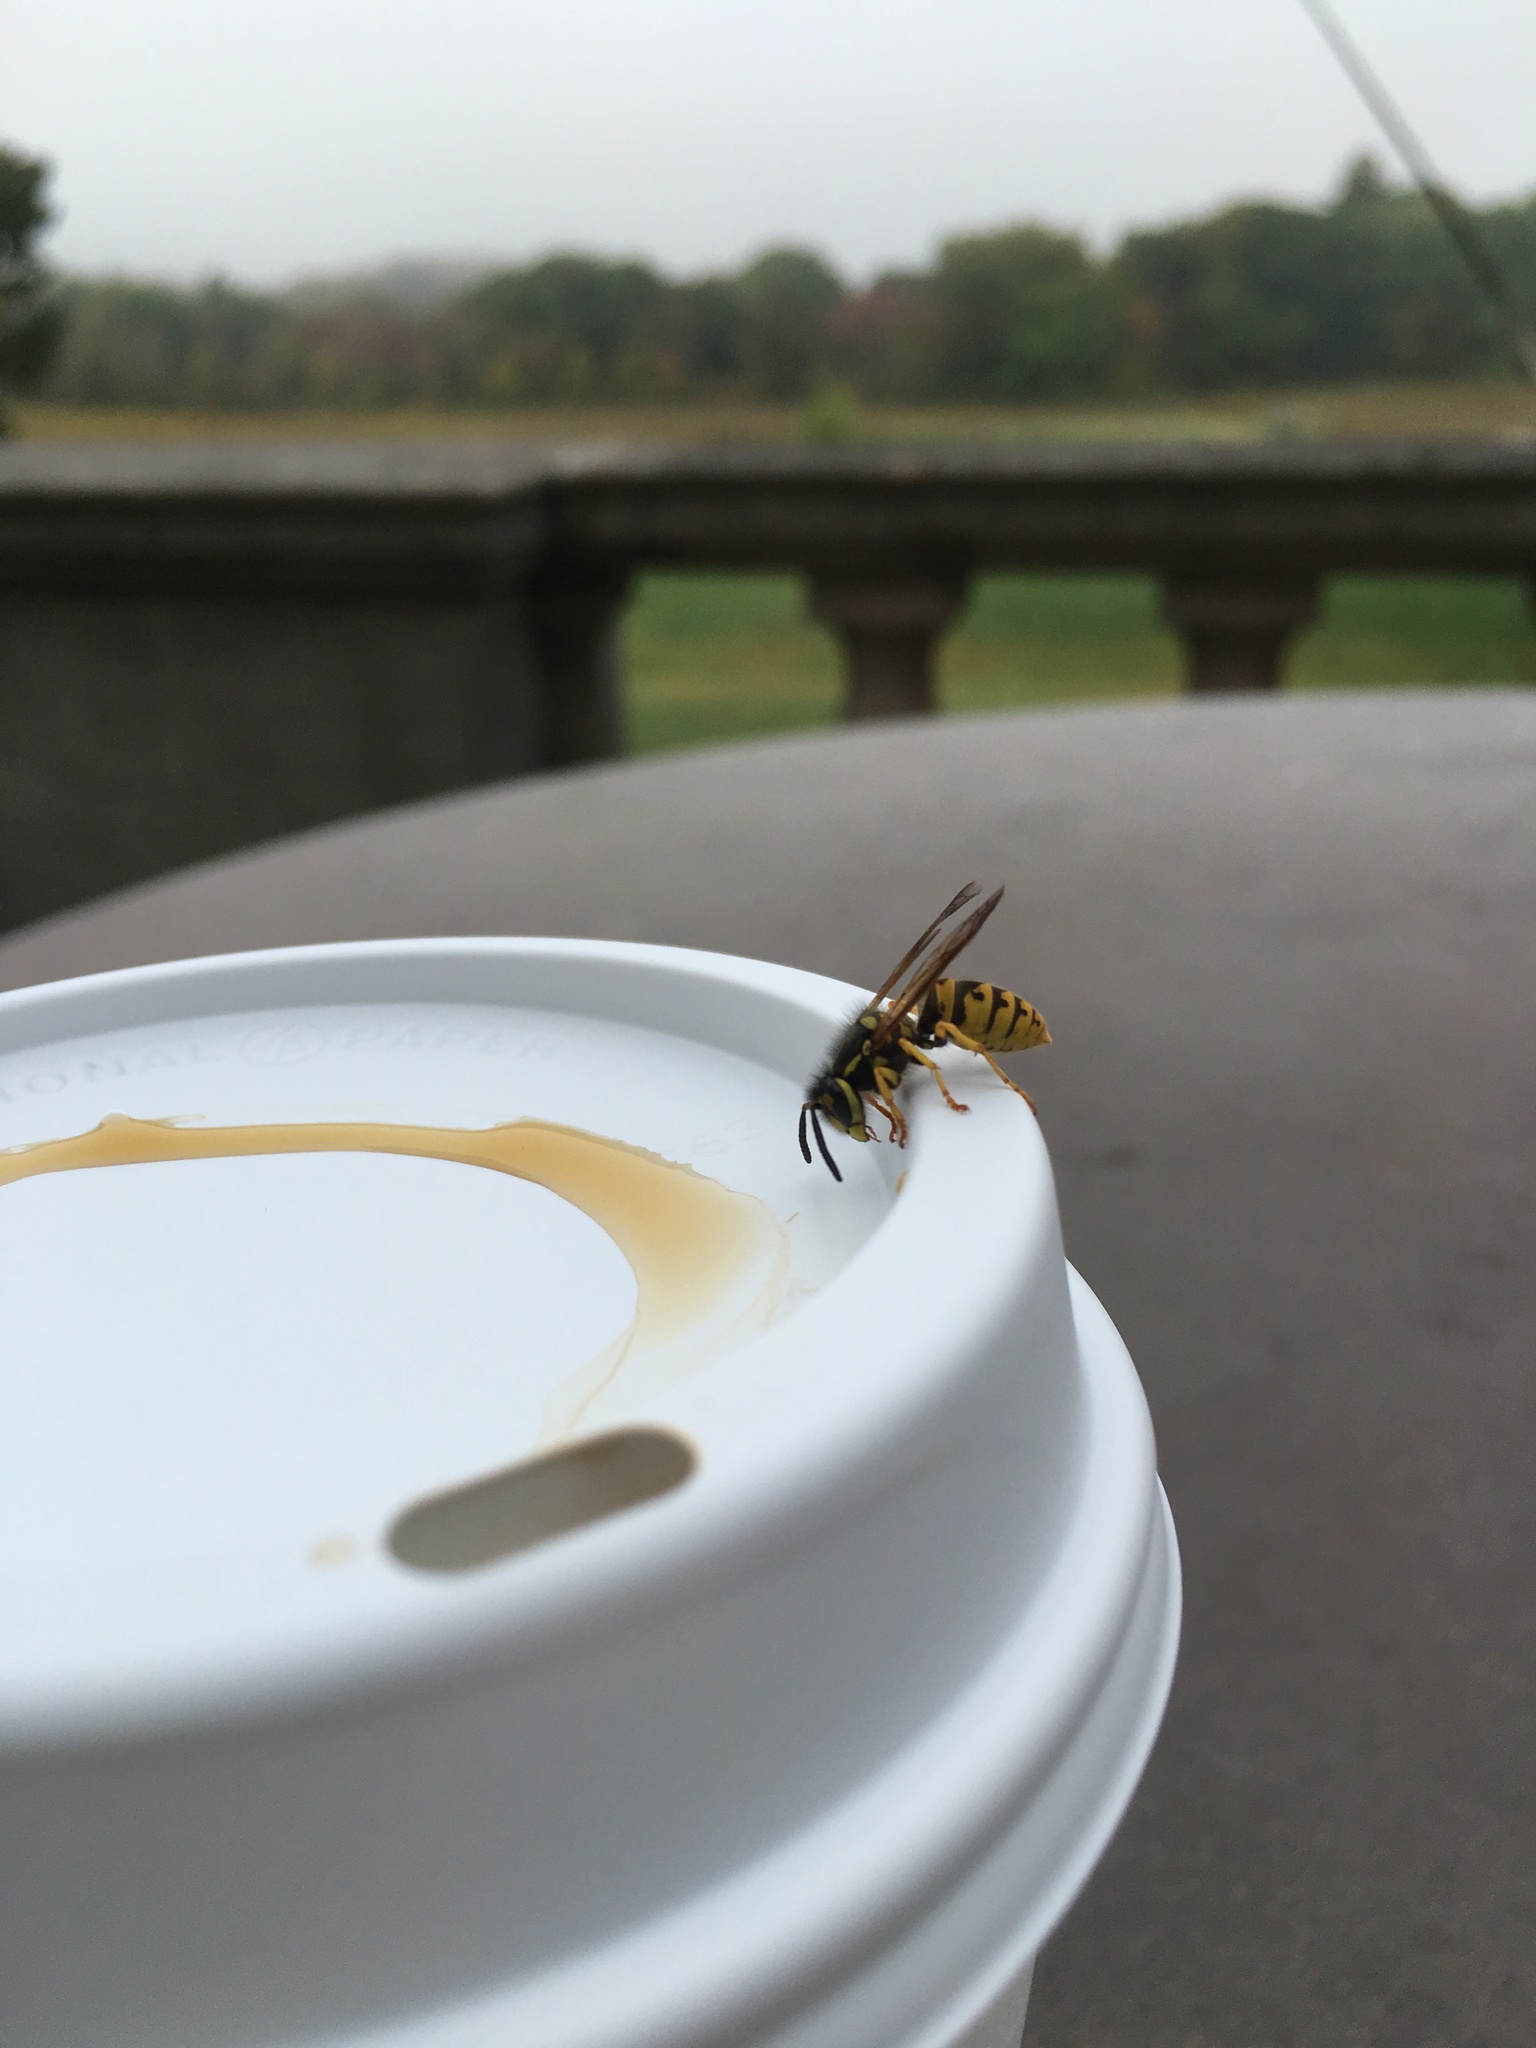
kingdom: Animalia
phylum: Arthropoda
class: Insecta
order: Hymenoptera
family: Vespidae
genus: Vespula
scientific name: Vespula germanica
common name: German wasp
